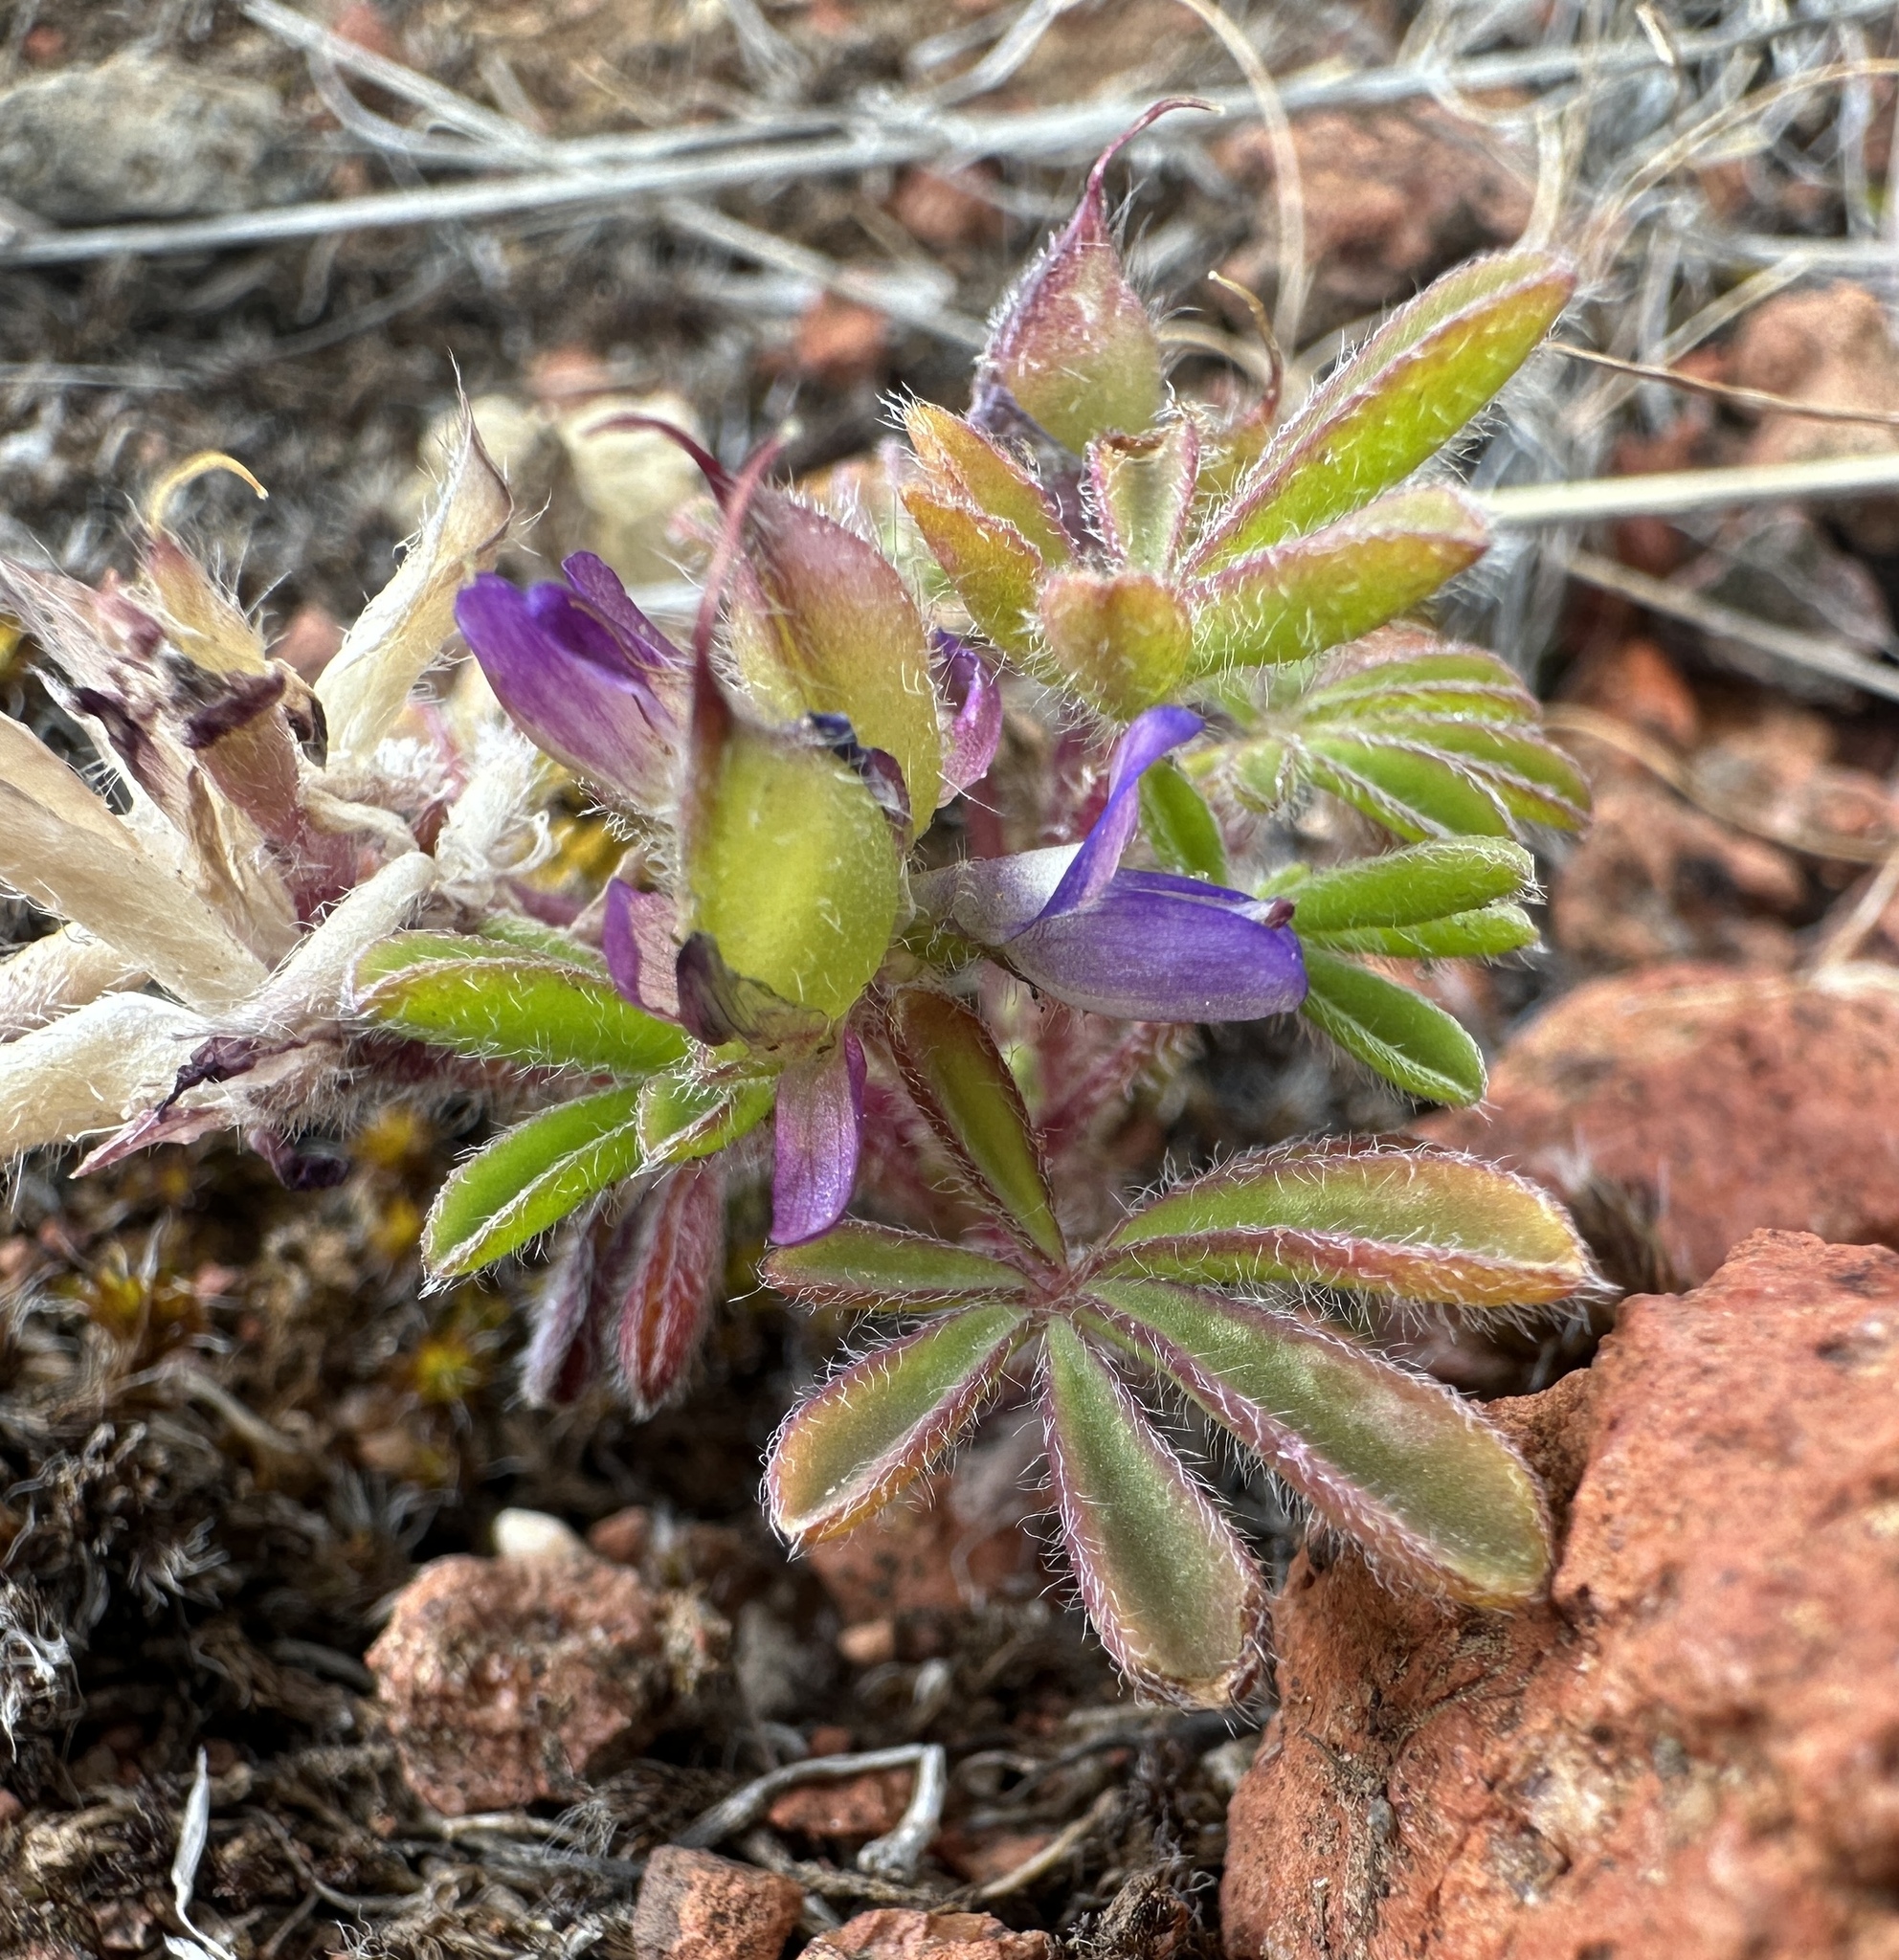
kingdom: Plantae
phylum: Tracheophyta
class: Magnoliopsida
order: Fabales
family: Fabaceae
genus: Lupinus
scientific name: Lupinus brevicaulis
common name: Sand lupine
